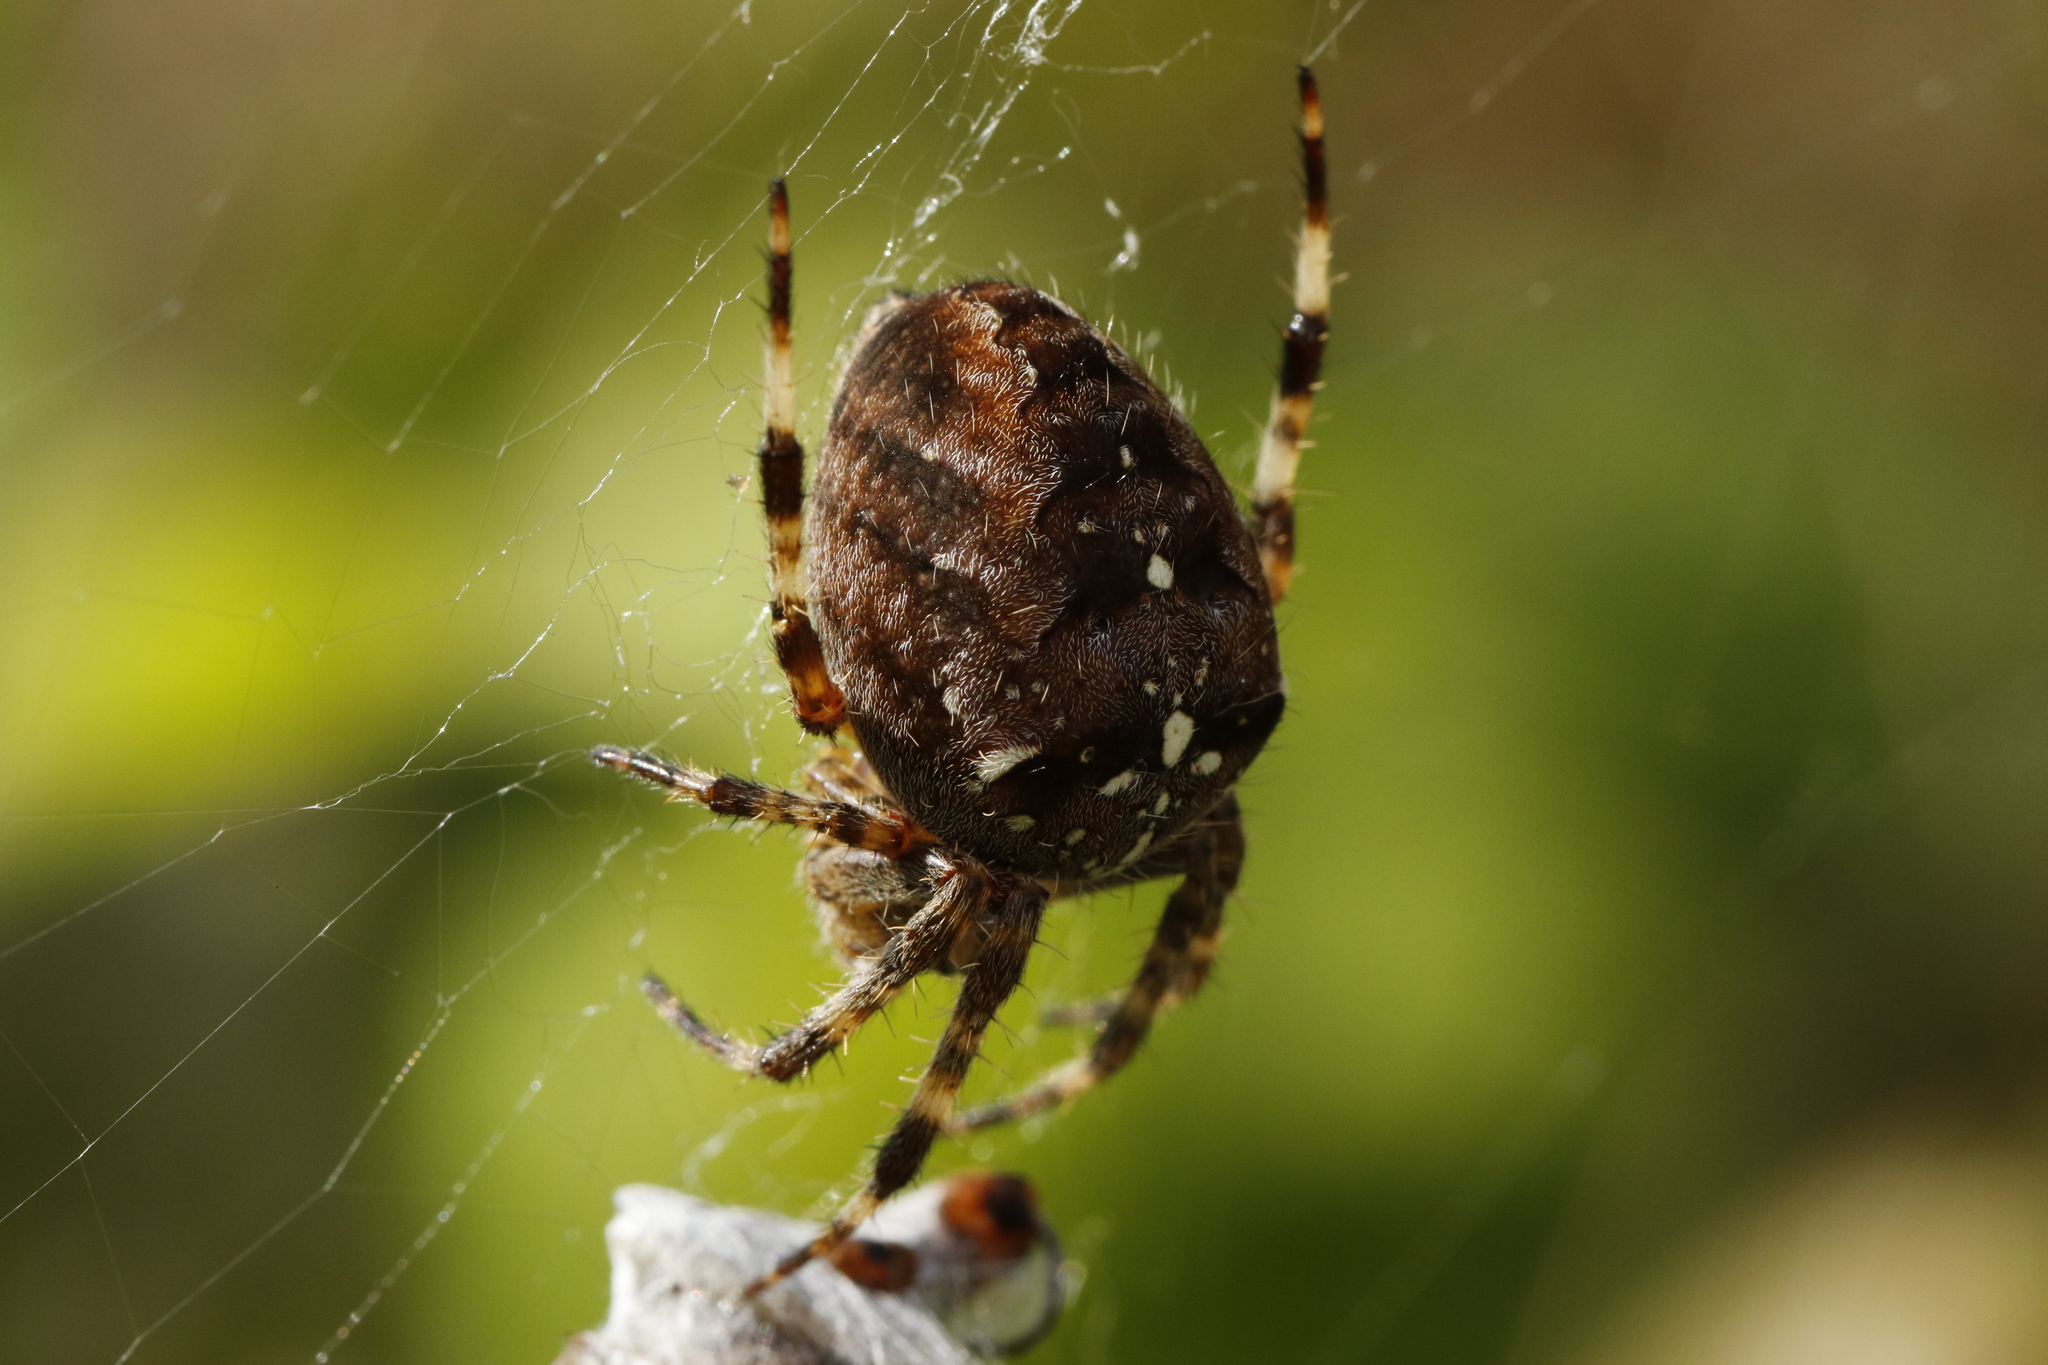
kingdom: Animalia
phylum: Arthropoda
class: Arachnida
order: Araneae
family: Araneidae
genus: Araneus
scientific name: Araneus diadematus
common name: Cross orbweaver
